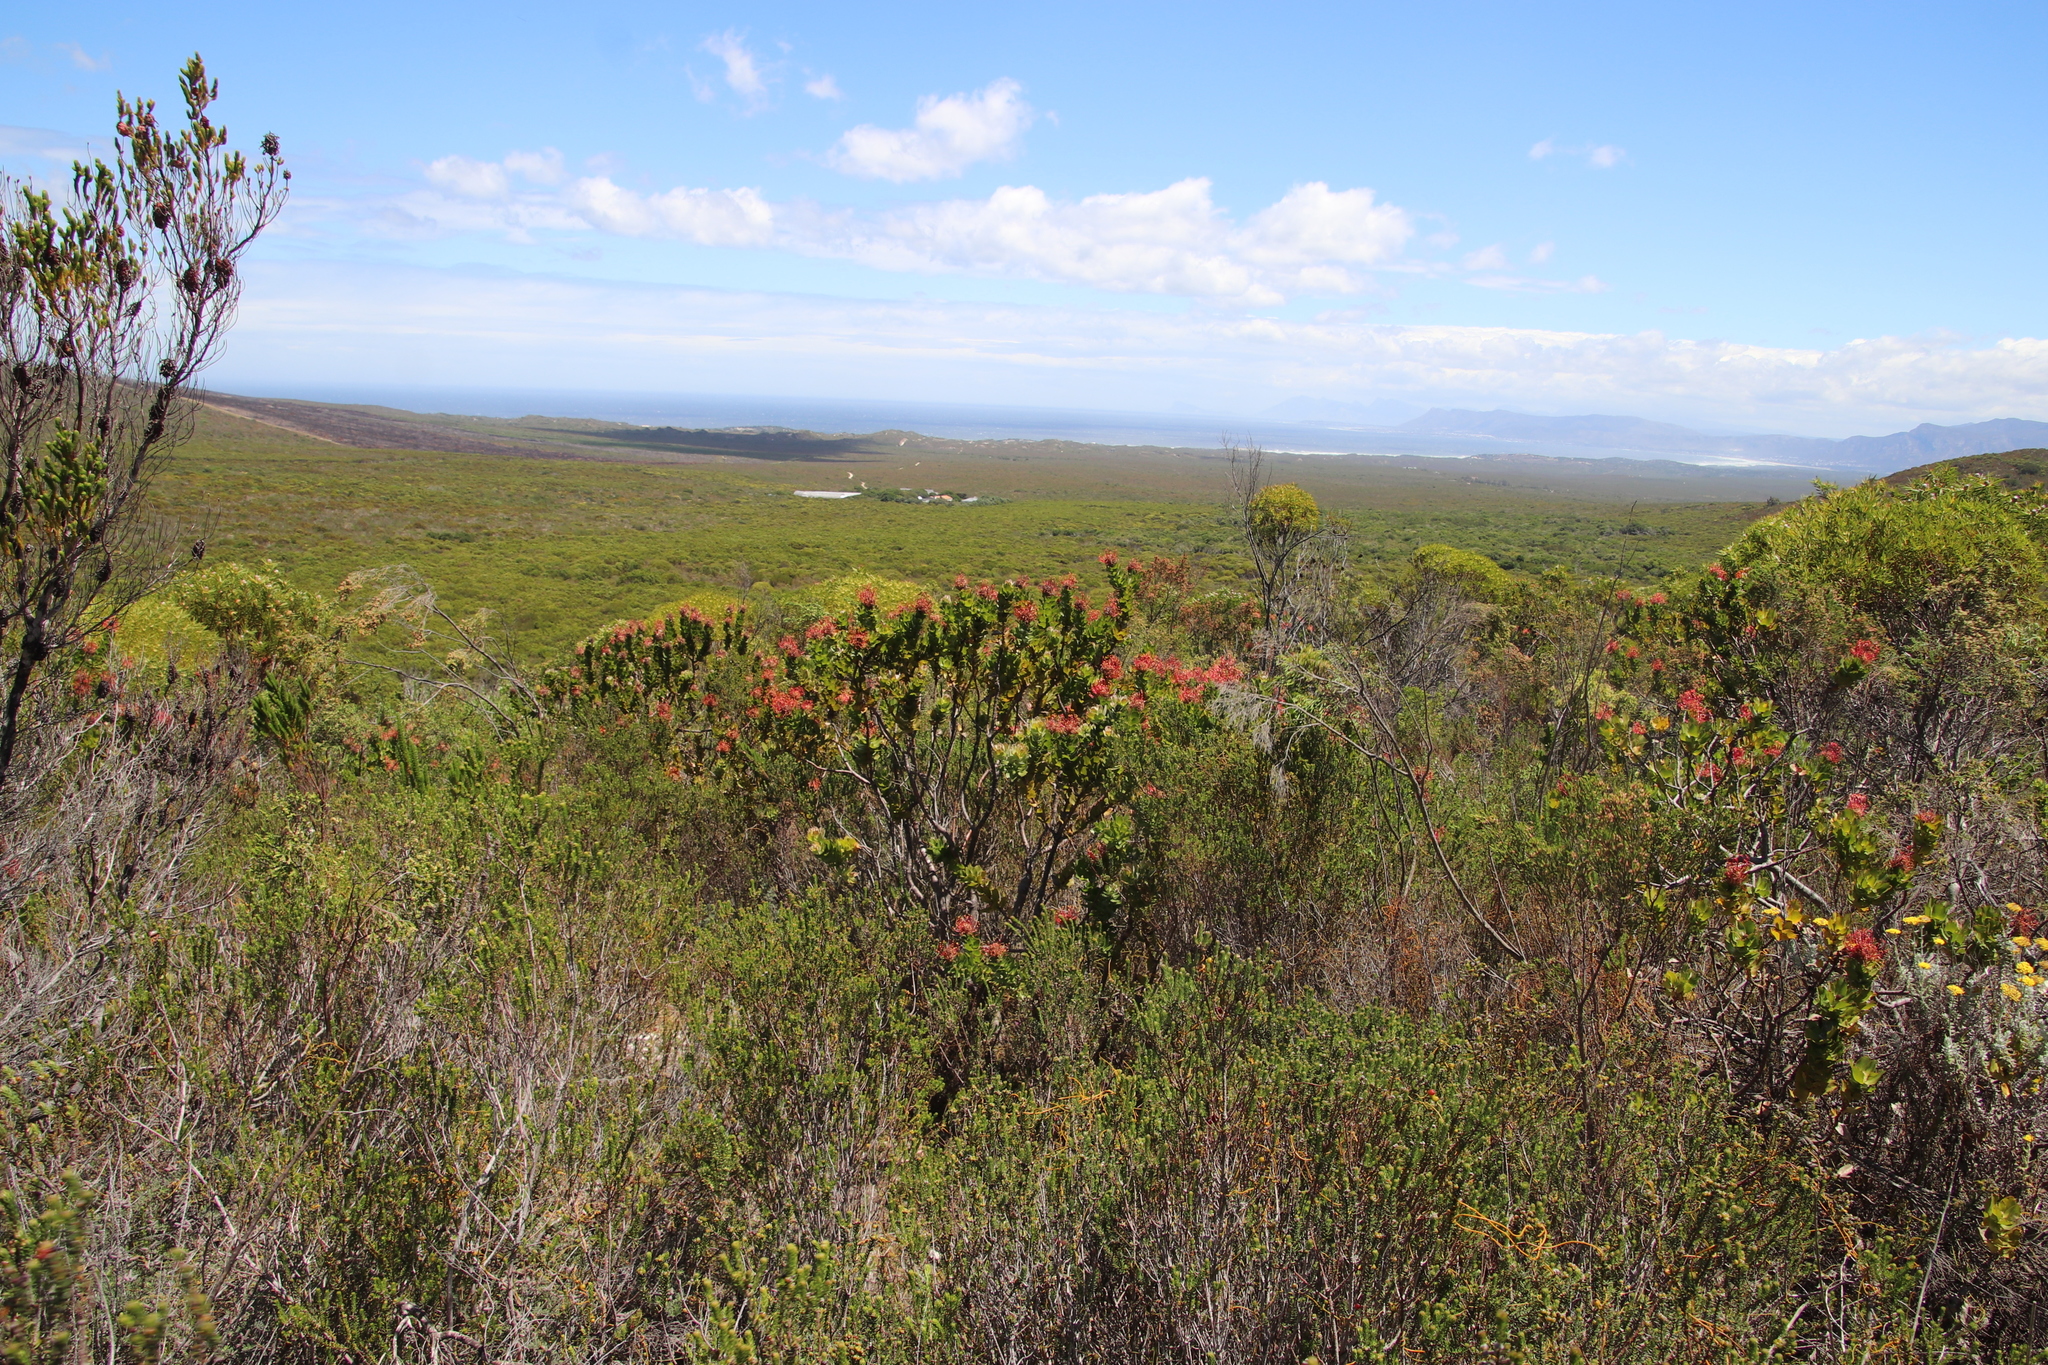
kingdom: Plantae
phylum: Tracheophyta
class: Magnoliopsida
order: Proteales
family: Proteaceae
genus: Leucospermum
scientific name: Leucospermum patersonii
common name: False tree pincushion
